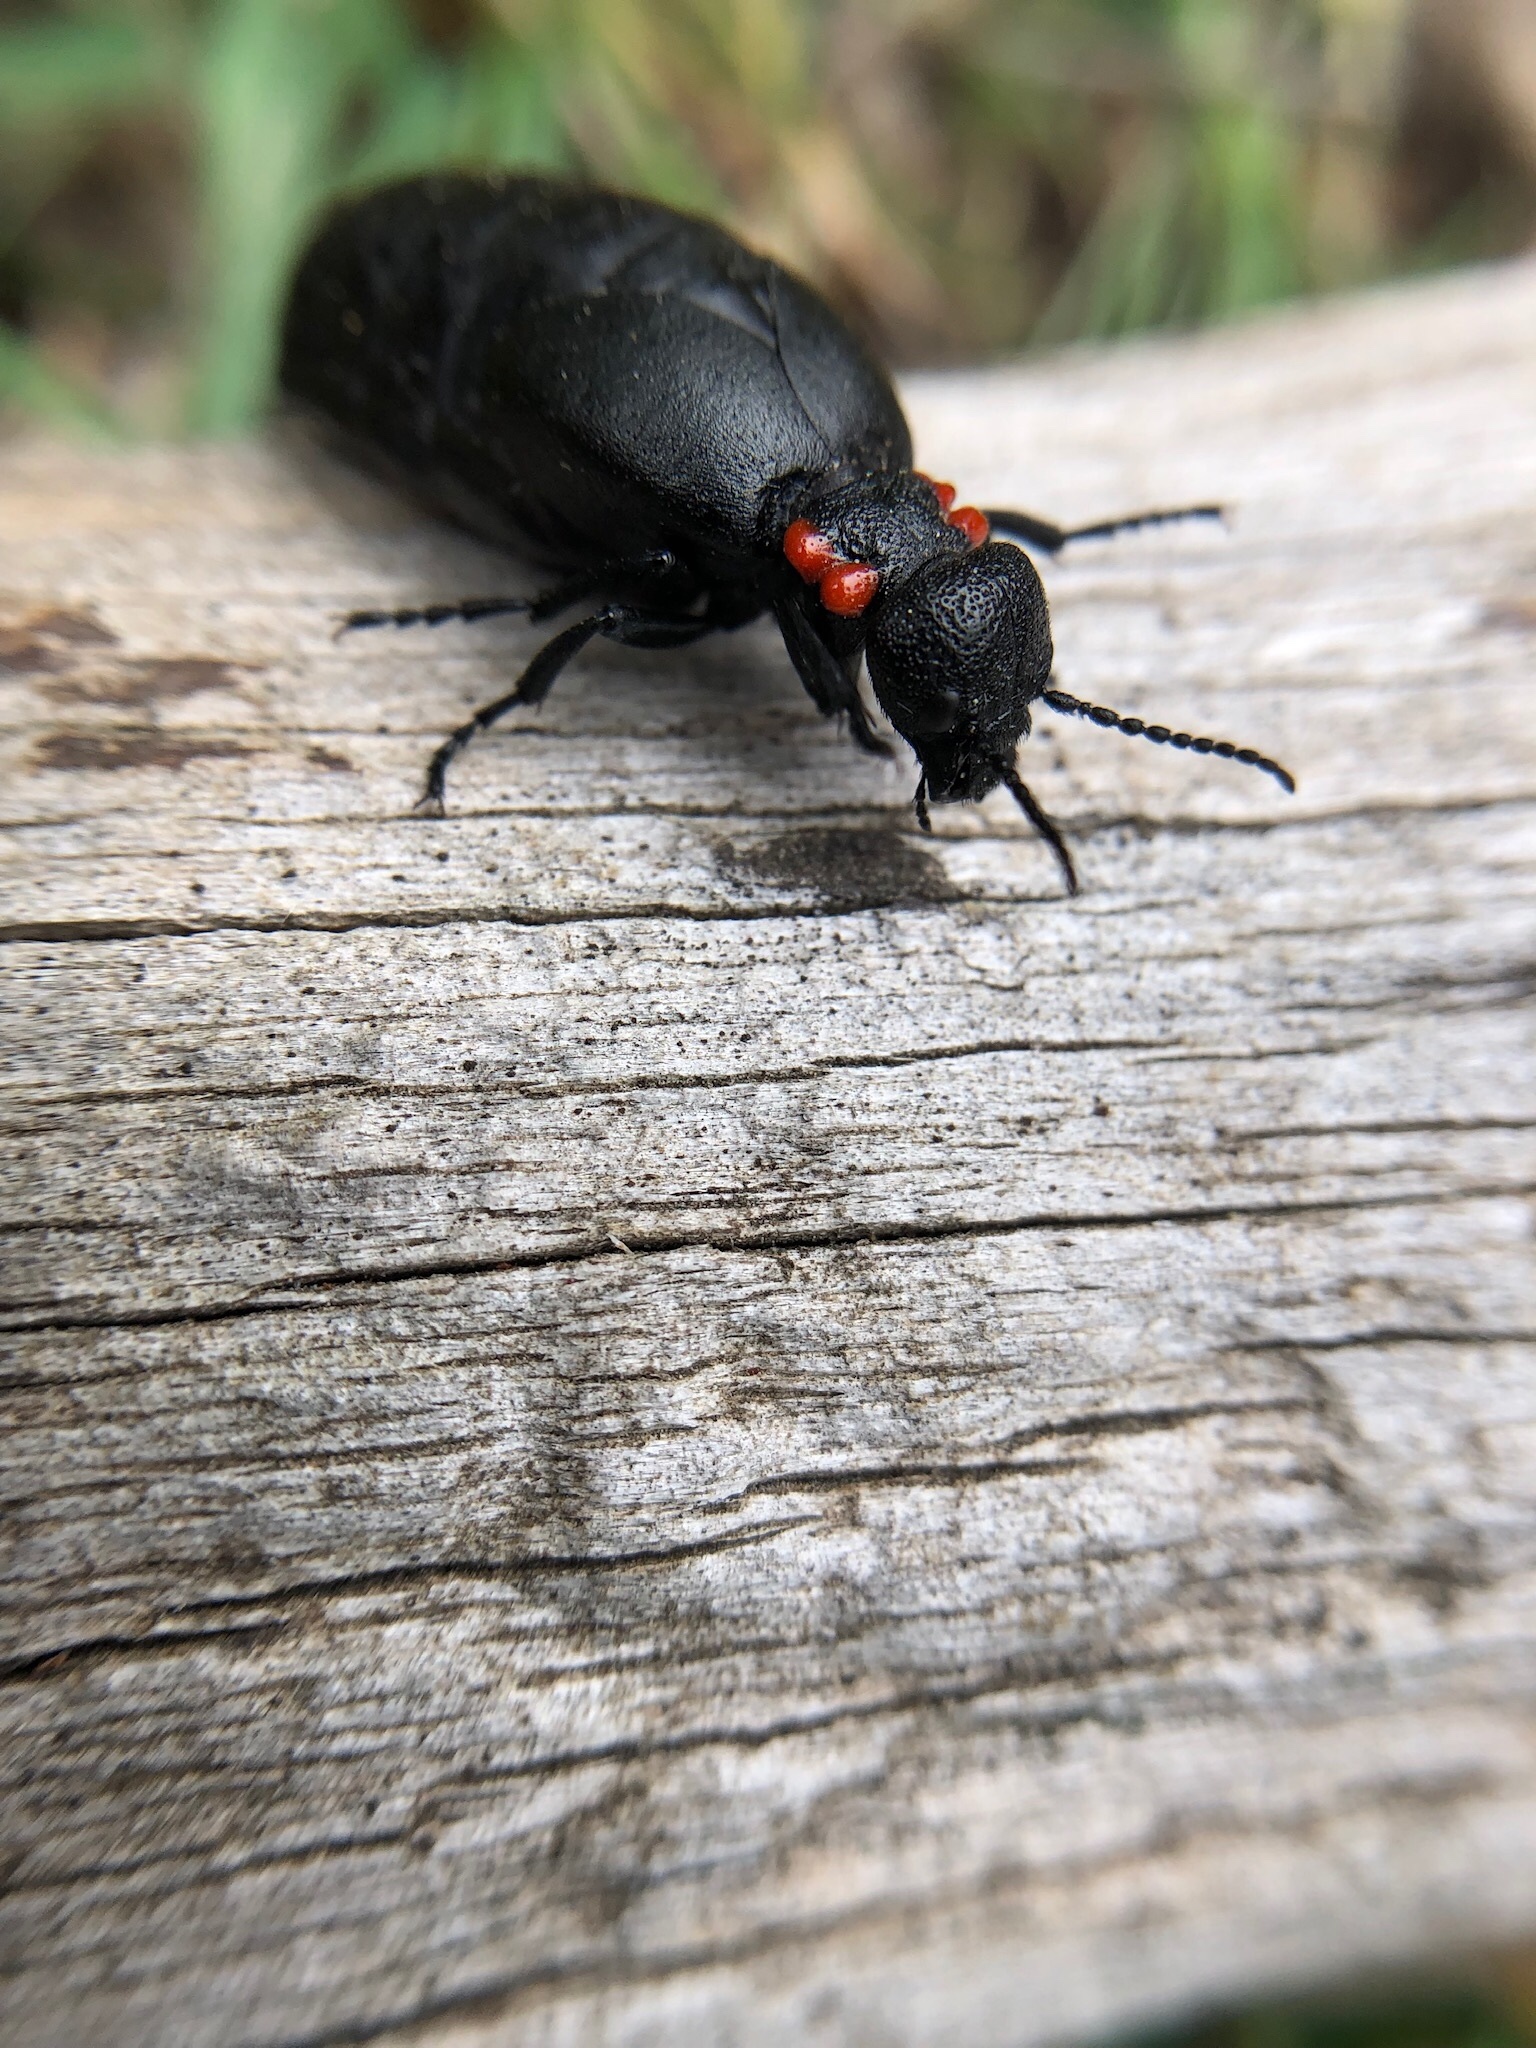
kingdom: Animalia
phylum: Arthropoda
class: Insecta
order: Coleoptera
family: Meloidae
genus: Physomeloe
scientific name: Physomeloe corallifer
